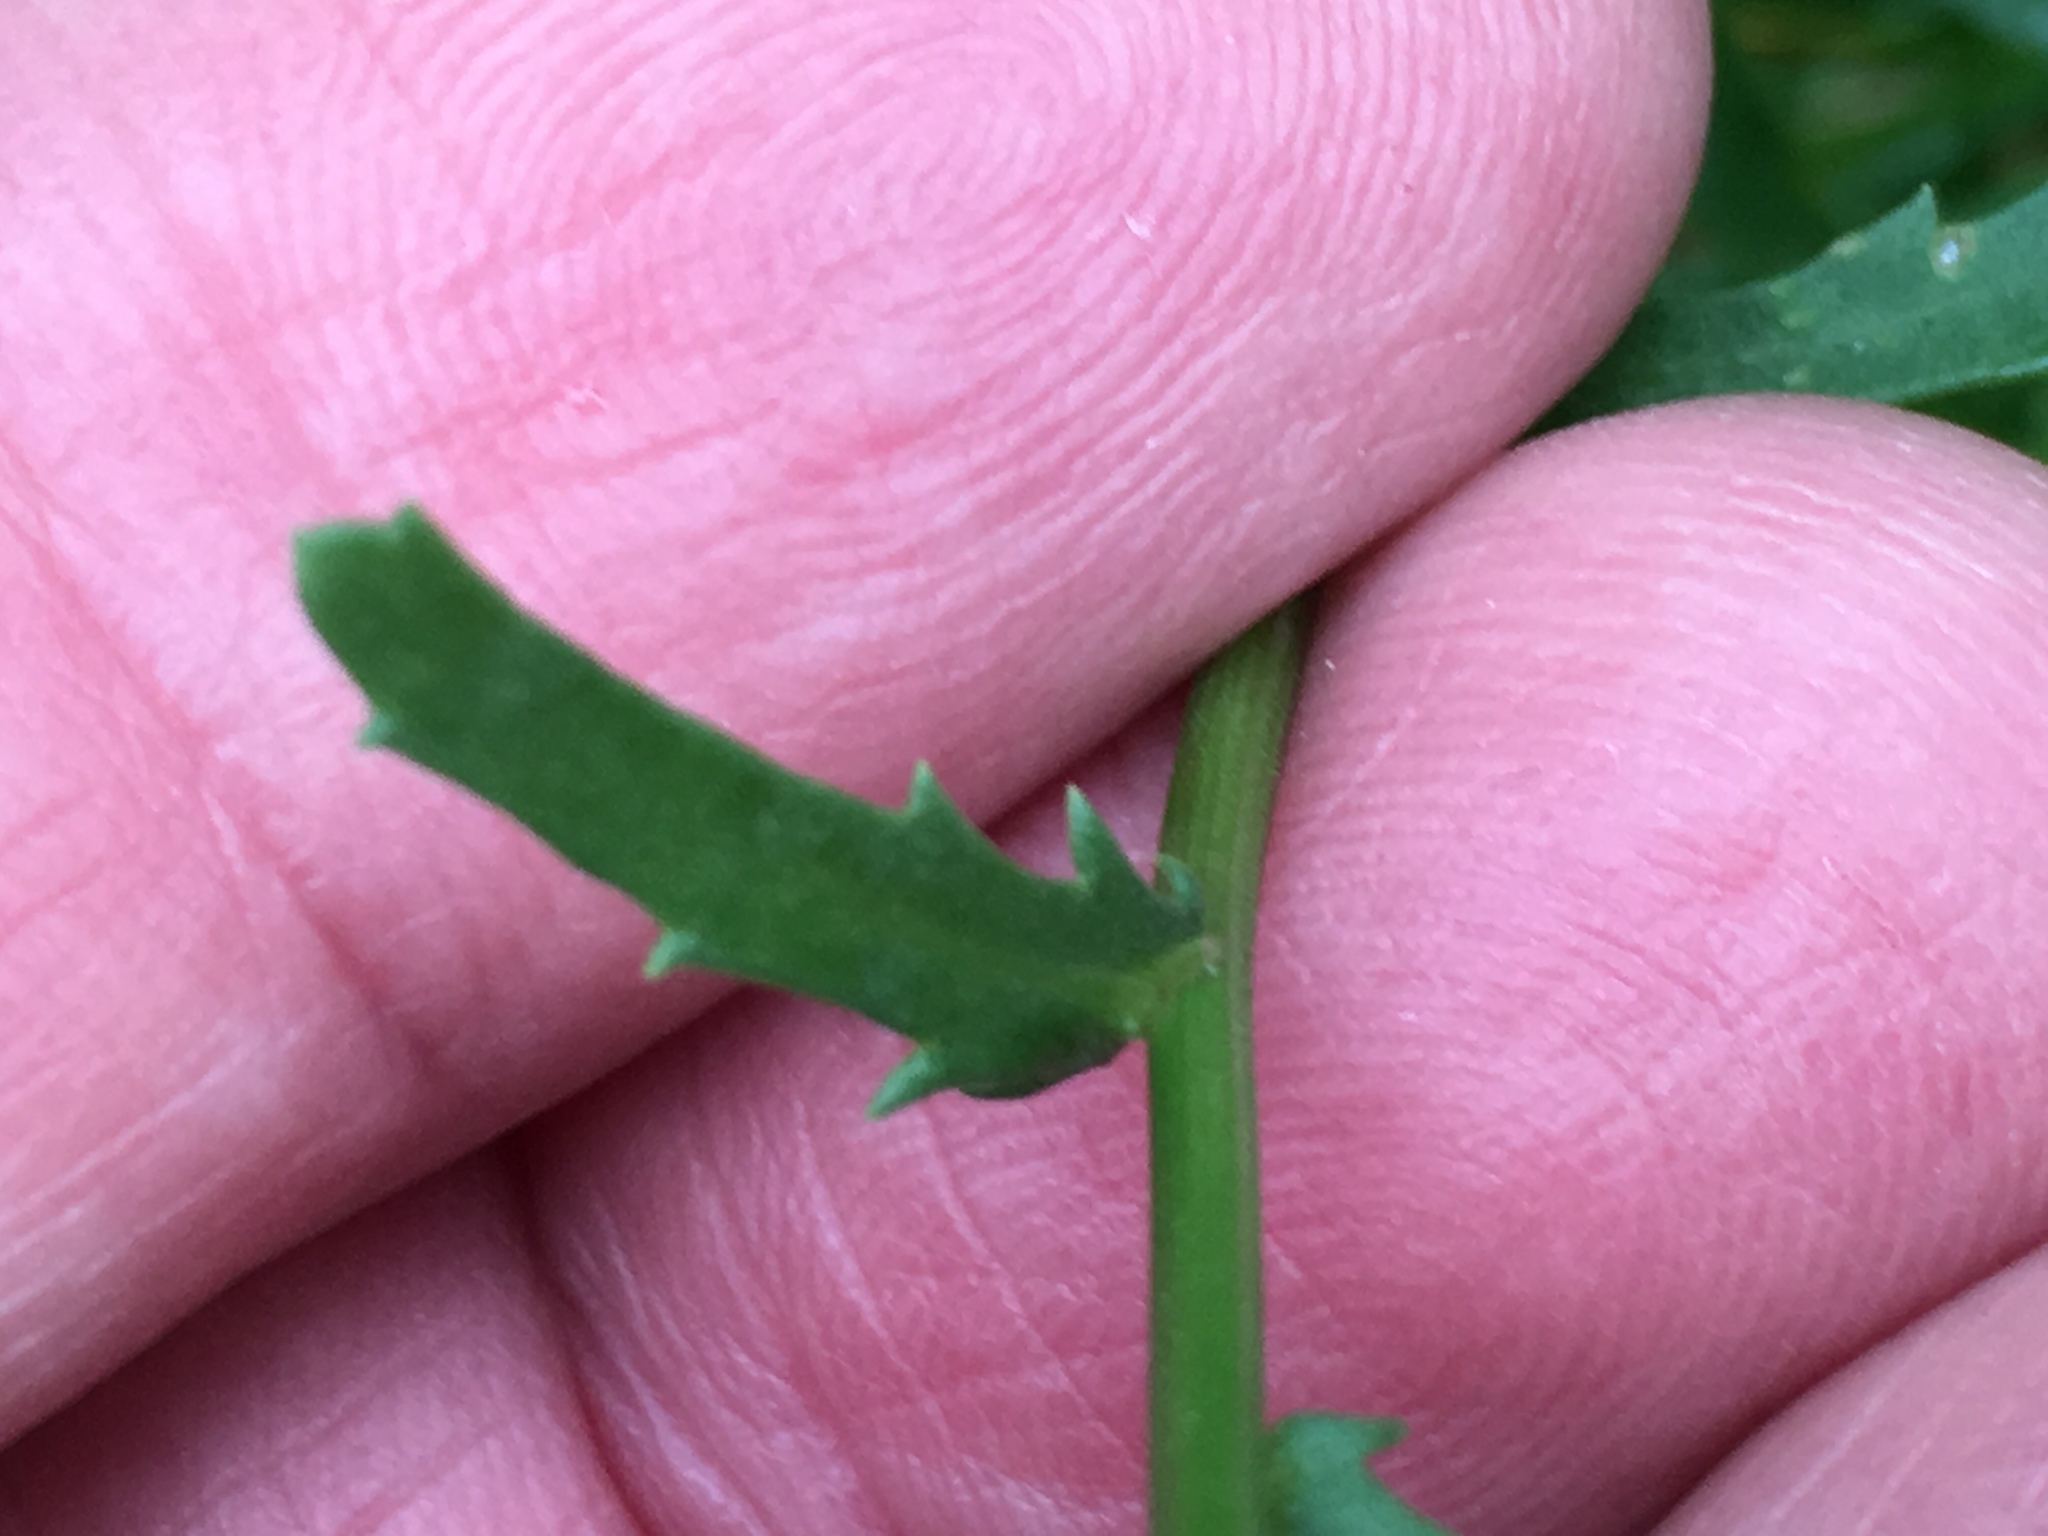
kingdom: Plantae
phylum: Tracheophyta
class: Magnoliopsida
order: Asterales
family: Asteraceae
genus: Leucanthemum
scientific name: Leucanthemum vulgare
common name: Oxeye daisy
